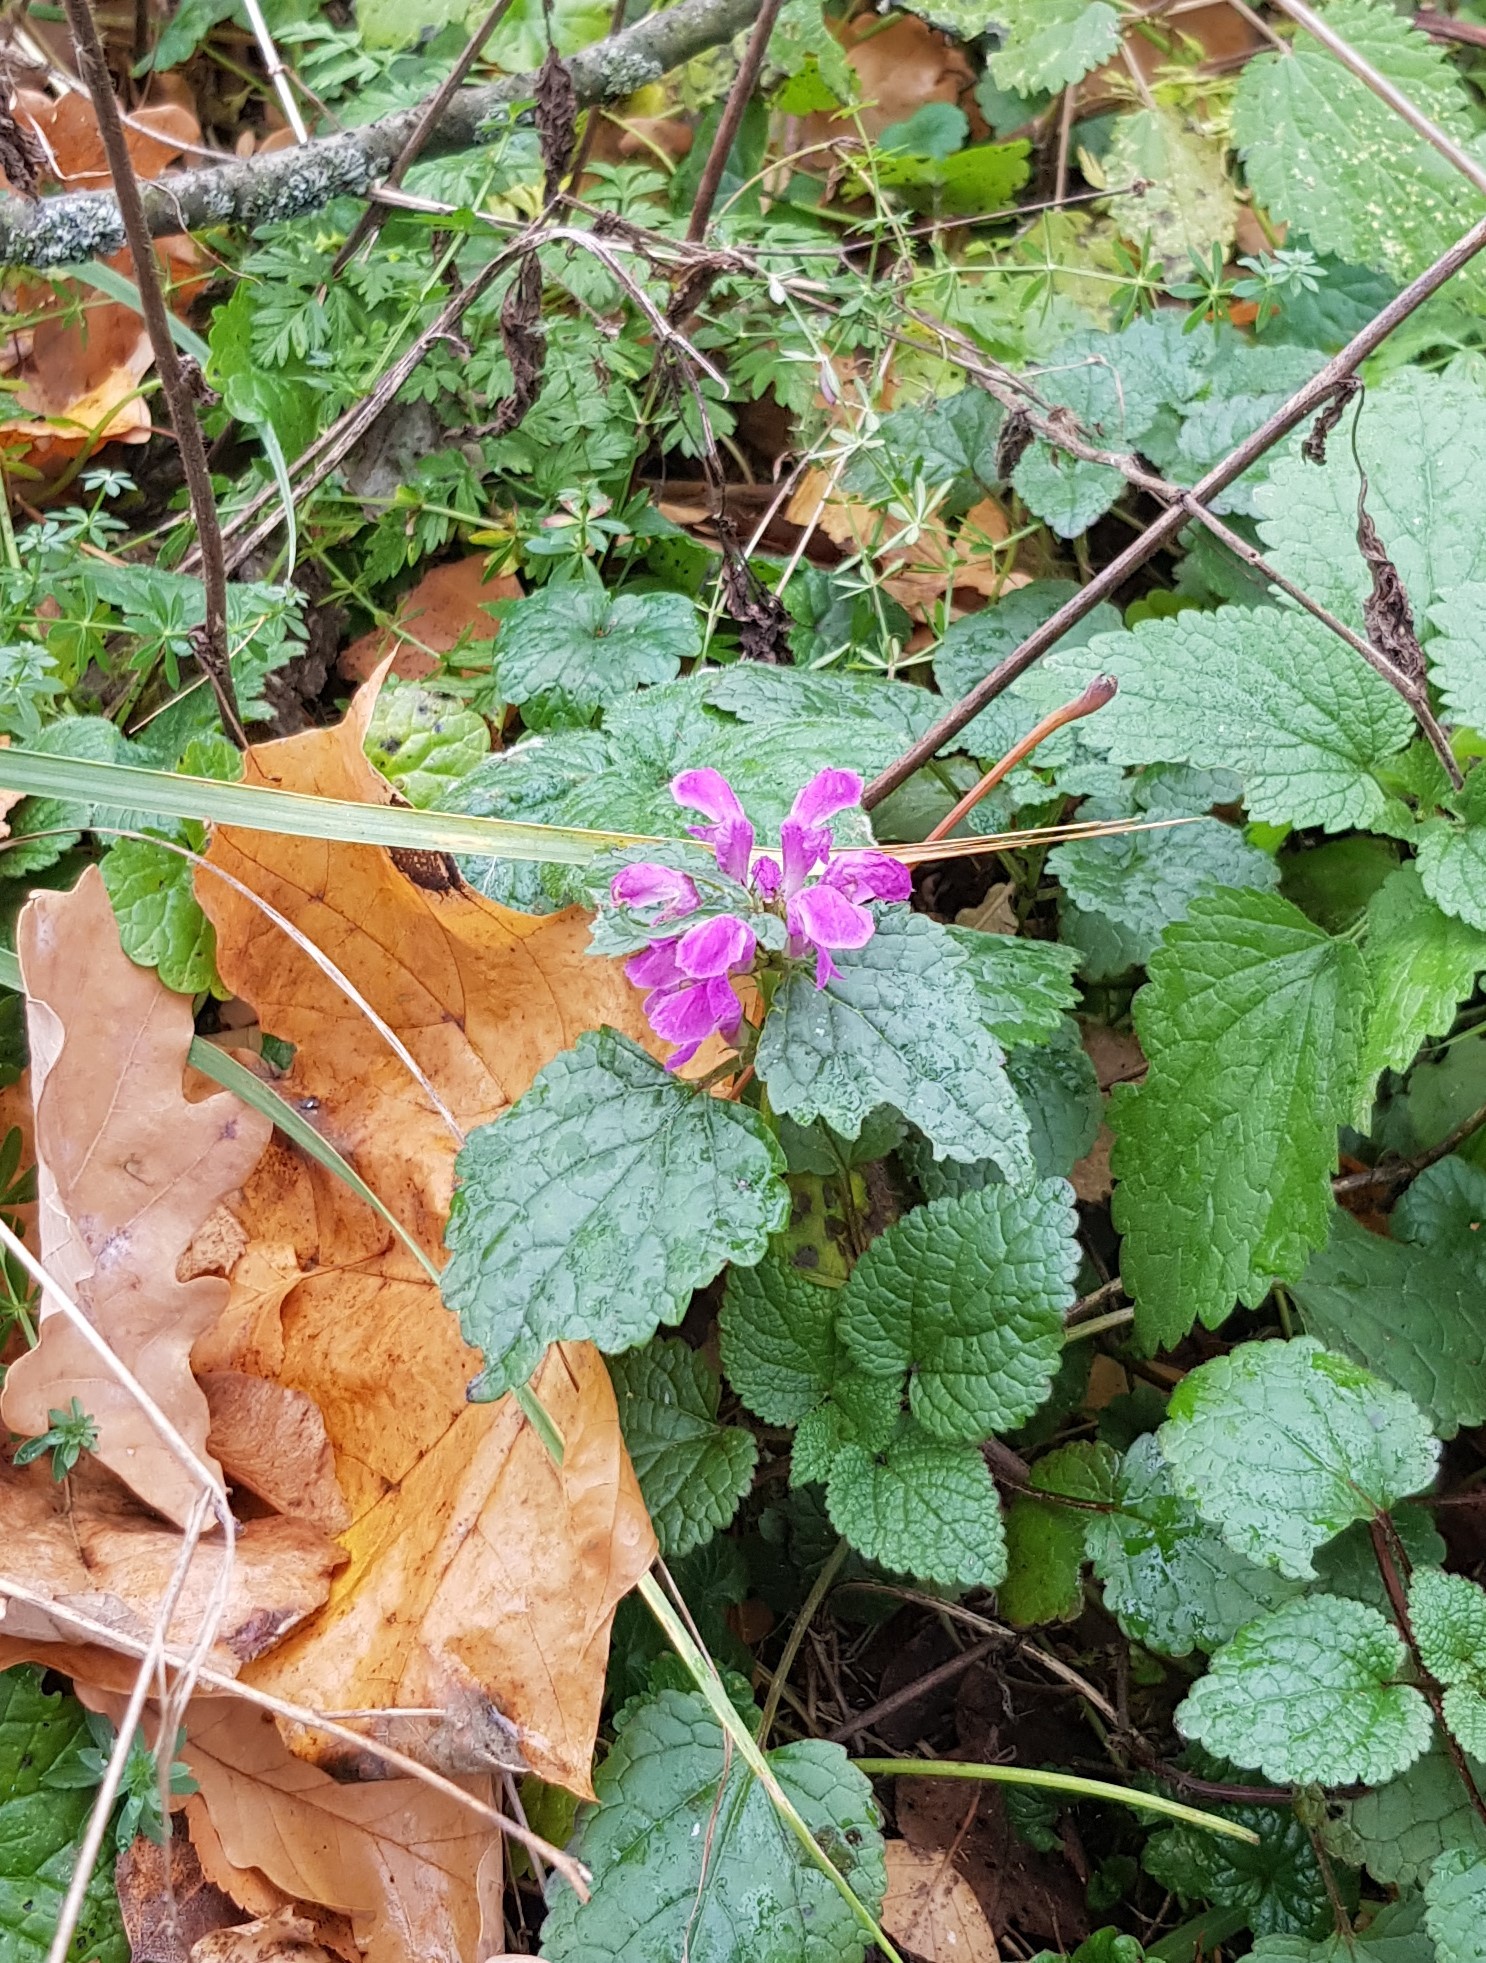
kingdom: Plantae
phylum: Tracheophyta
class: Magnoliopsida
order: Lamiales
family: Lamiaceae
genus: Lamium
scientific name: Lamium maculatum
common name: Spotted dead-nettle
